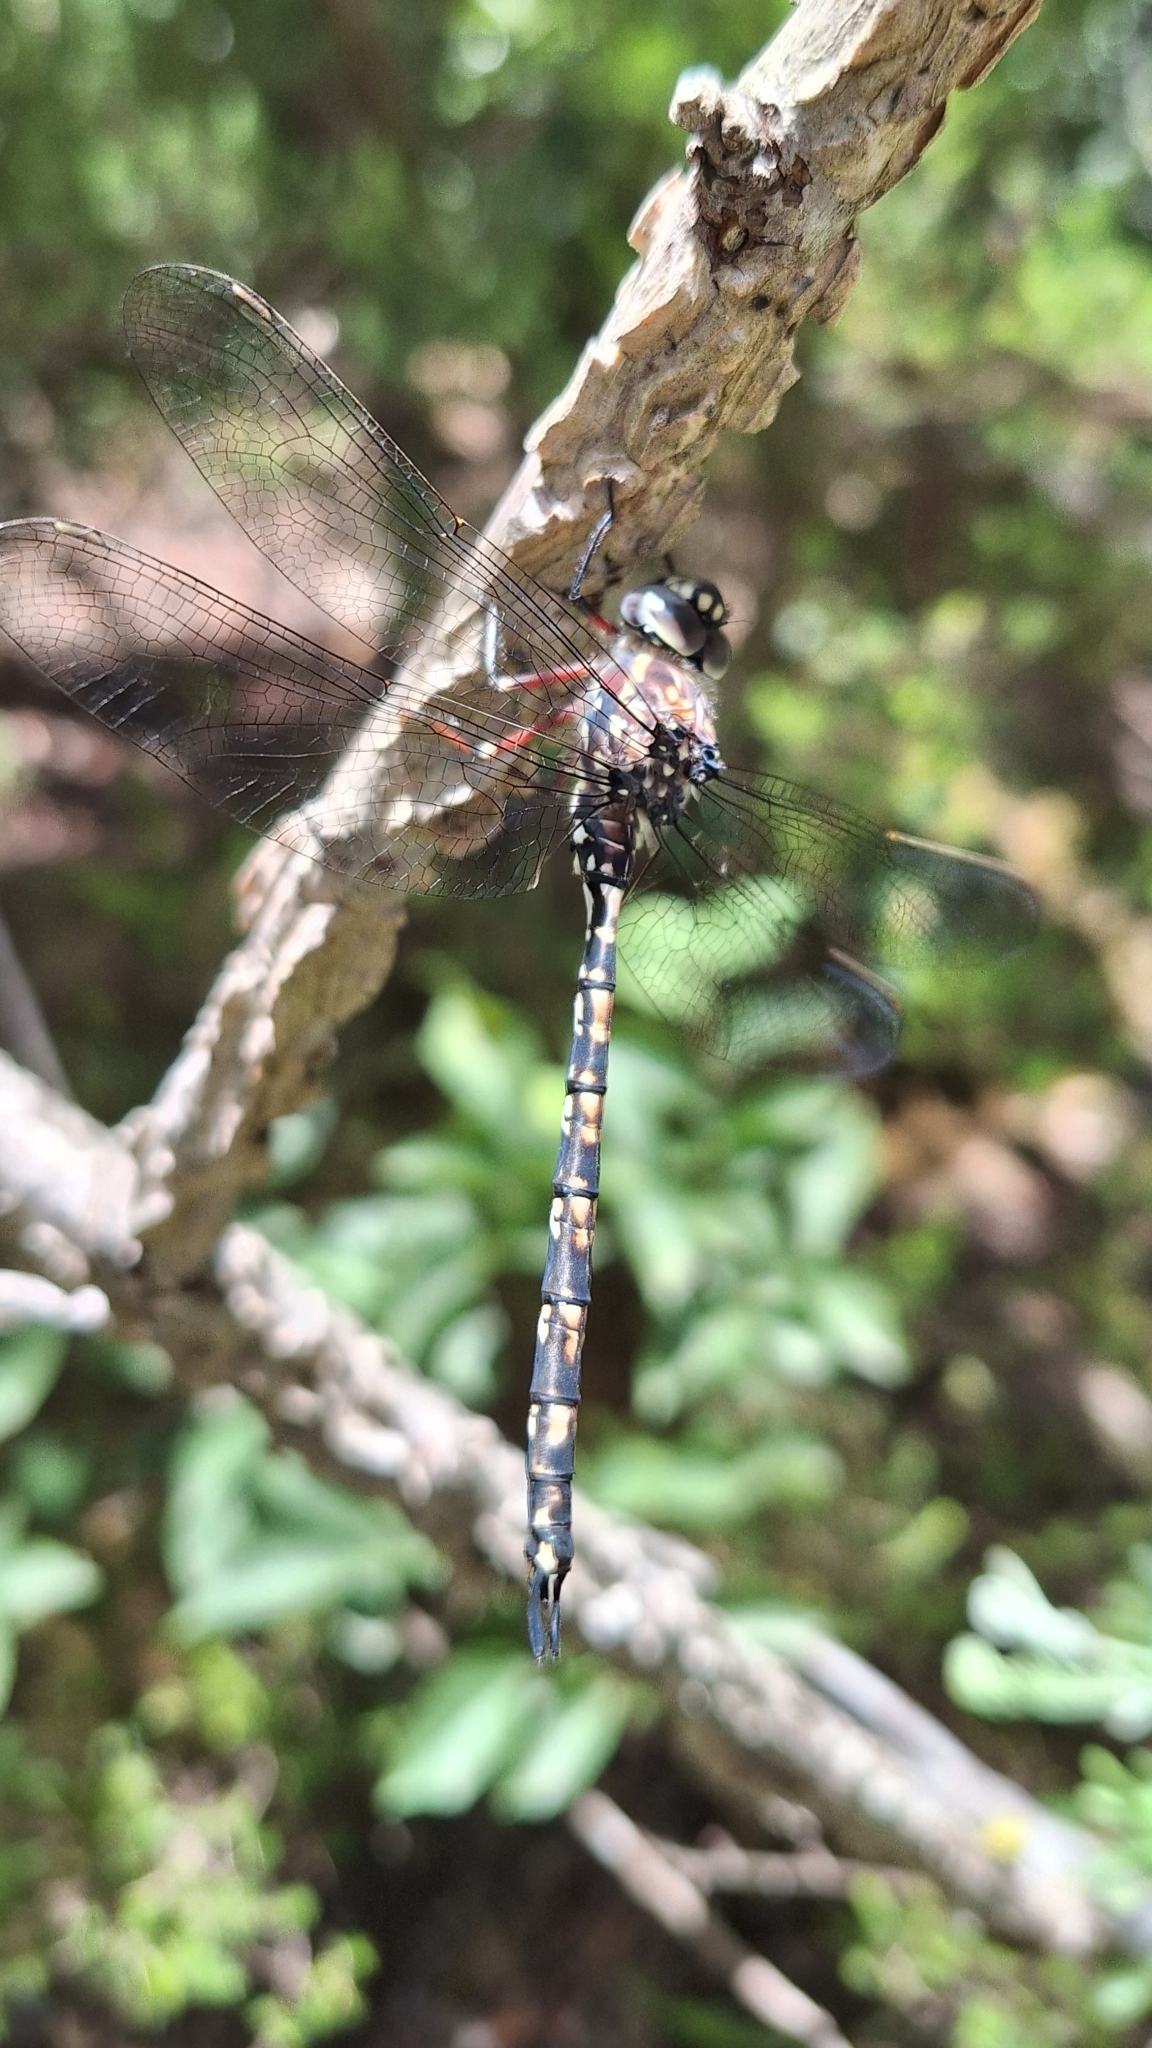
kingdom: Animalia
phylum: Arthropoda
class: Insecta
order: Odonata
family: Aeshnidae
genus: Austroaeschna
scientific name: Austroaeschna parvistigma
